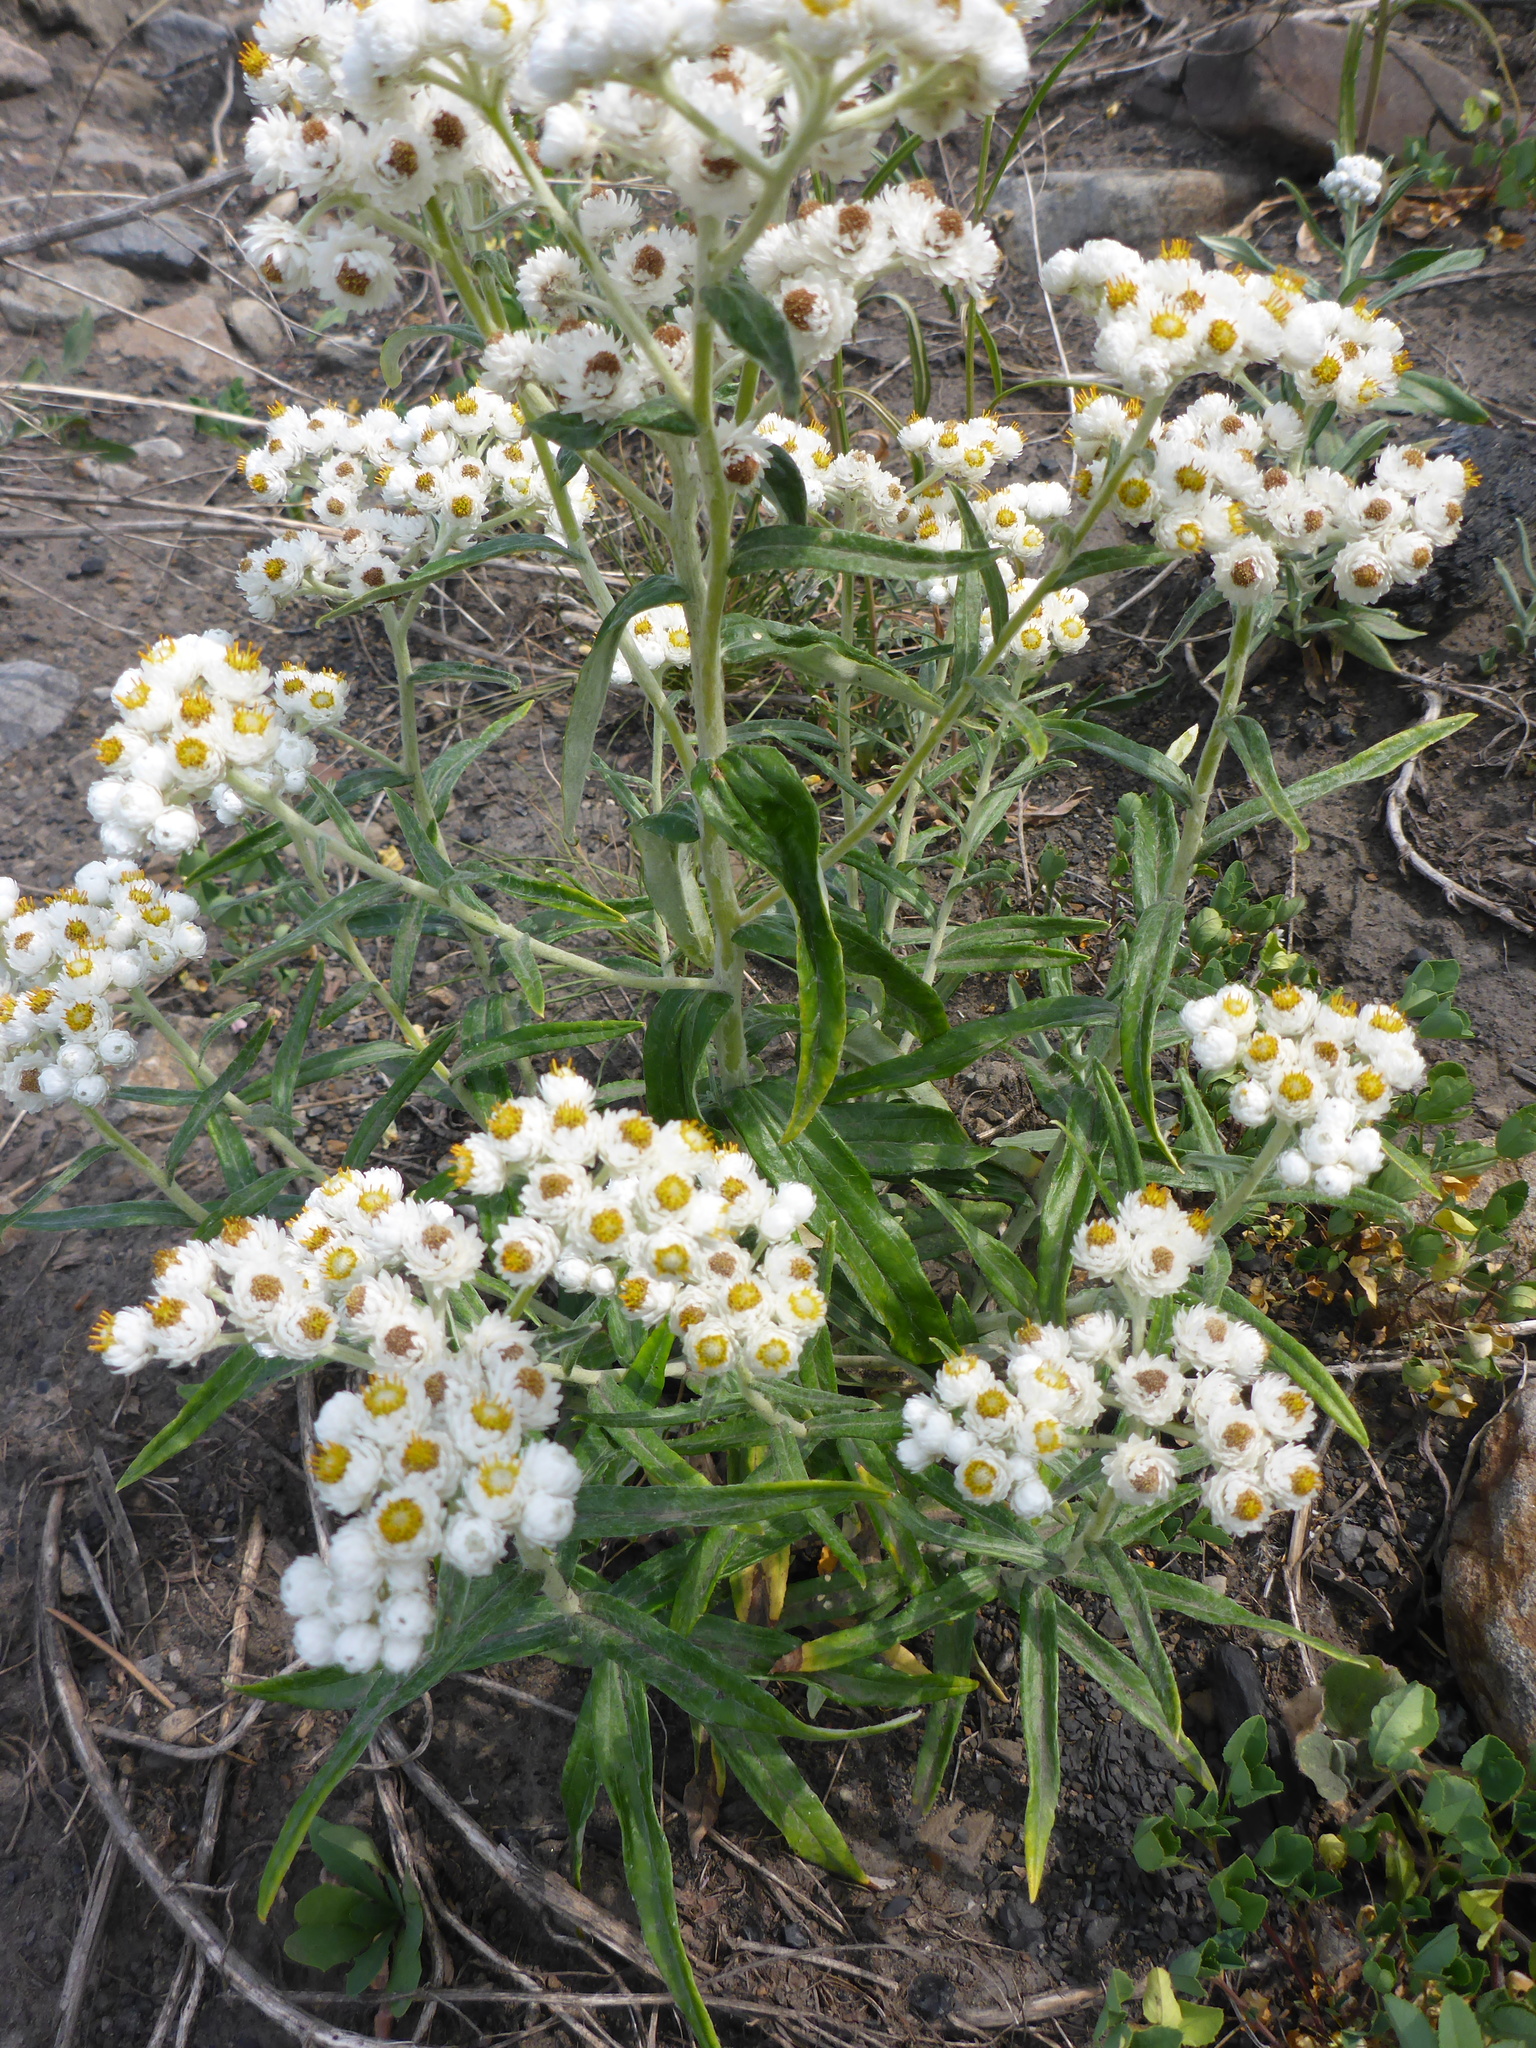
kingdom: Plantae
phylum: Tracheophyta
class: Magnoliopsida
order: Asterales
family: Asteraceae
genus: Anaphalis
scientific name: Anaphalis margaritacea
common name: Pearly everlasting
